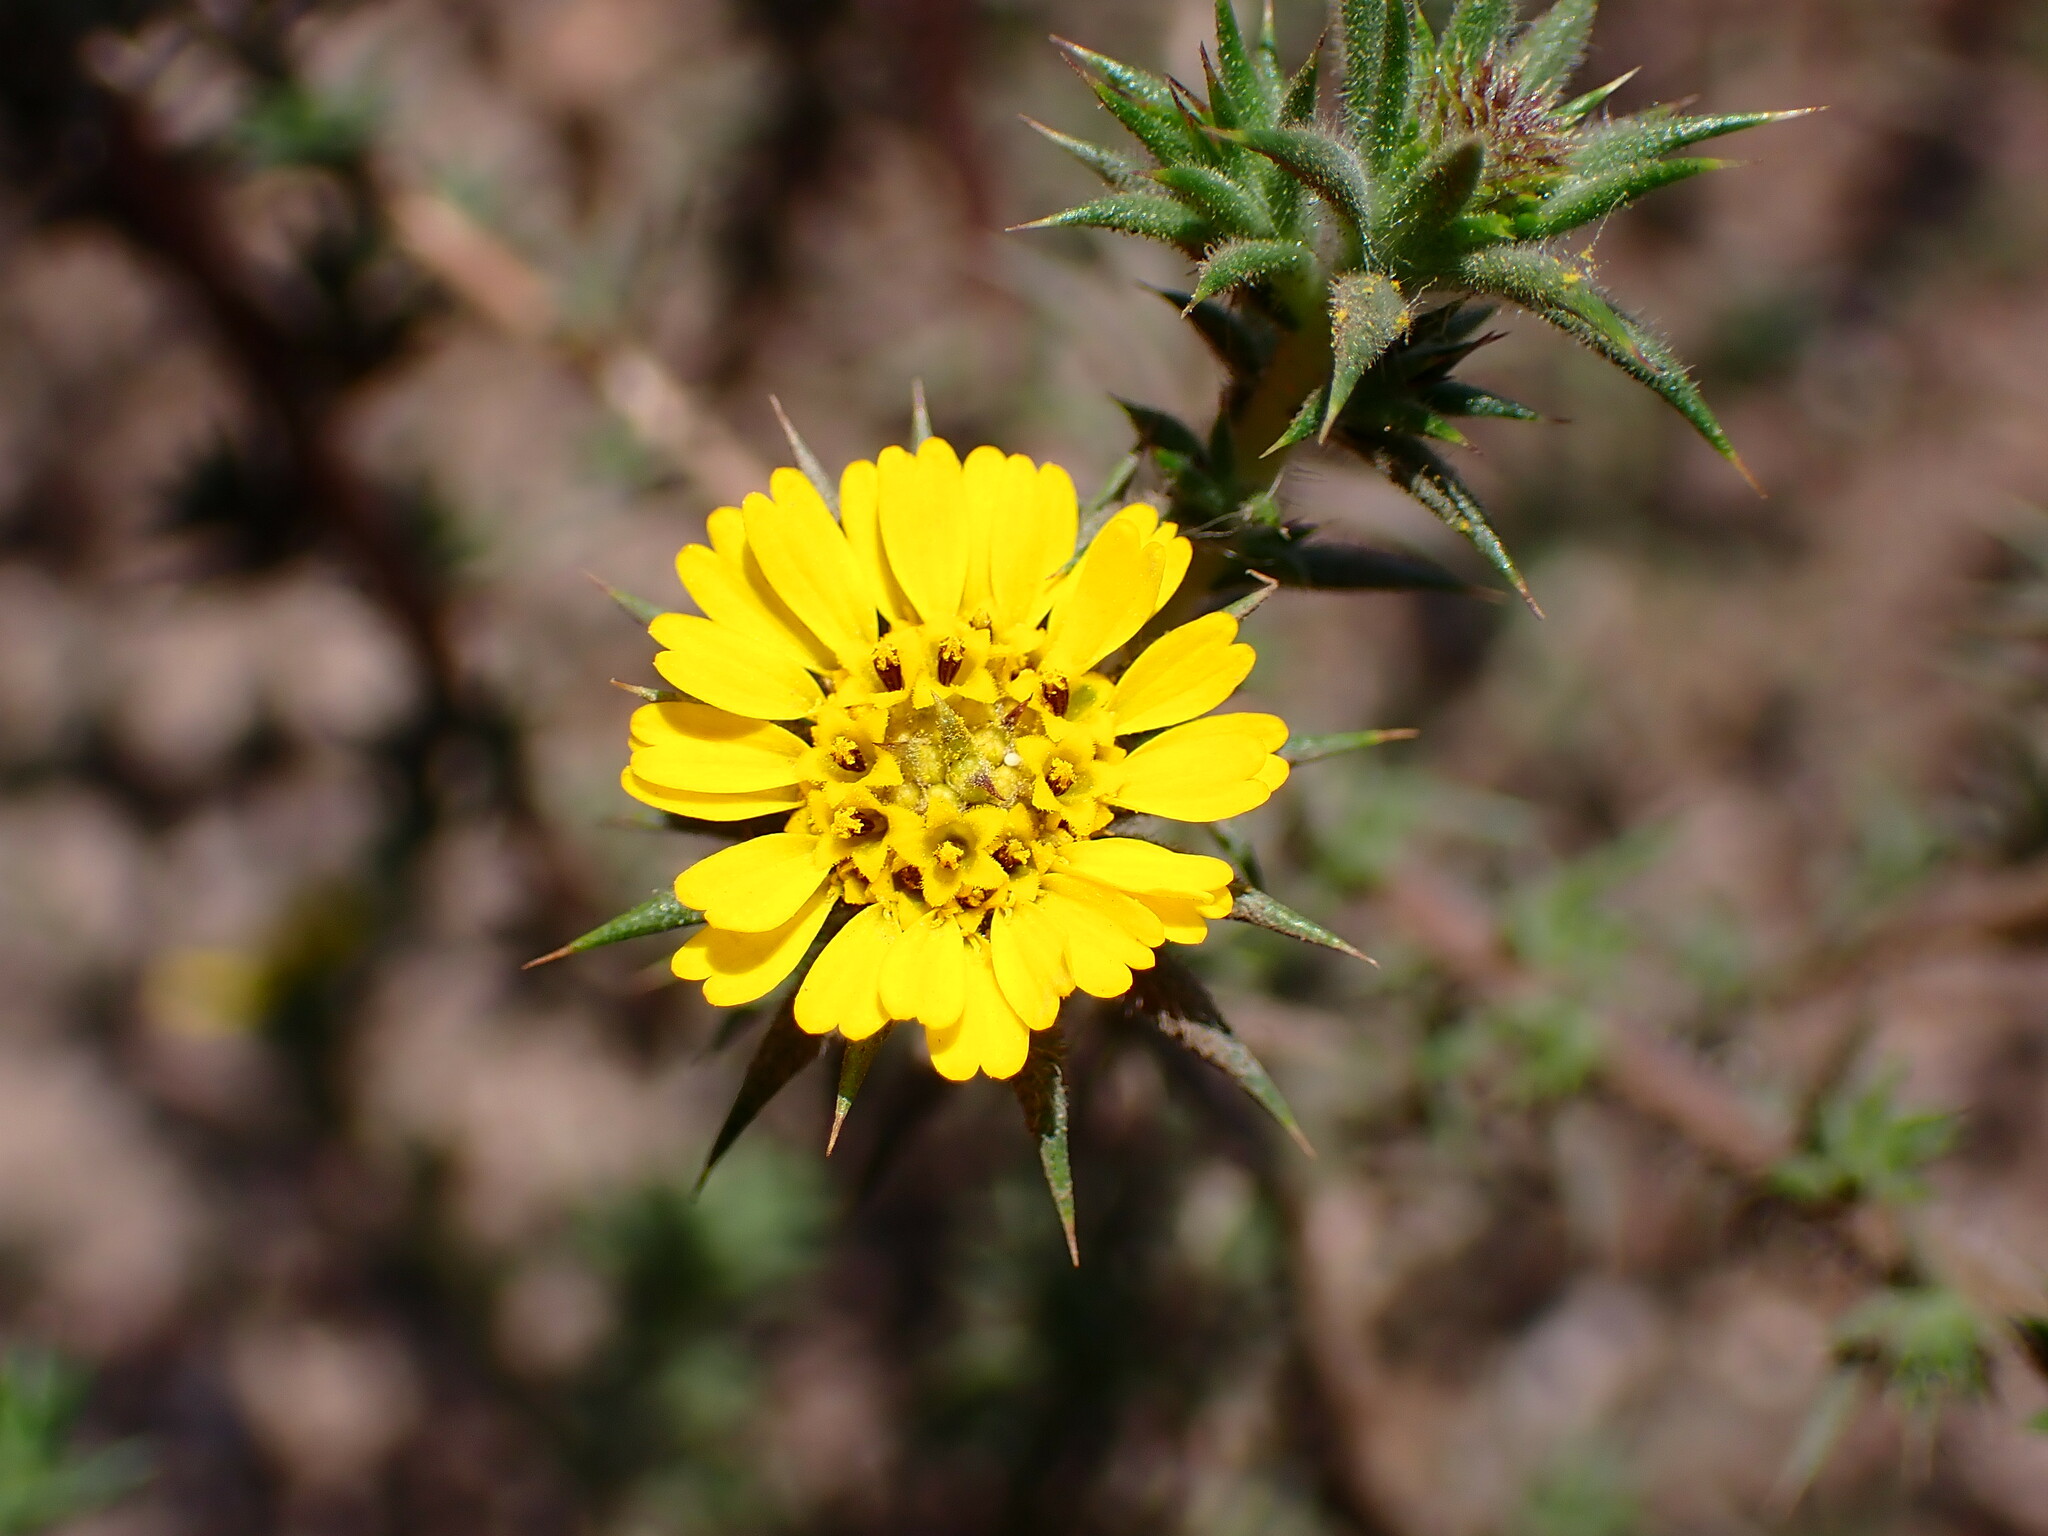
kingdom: Plantae
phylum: Tracheophyta
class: Magnoliopsida
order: Asterales
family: Asteraceae
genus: Centromadia
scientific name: Centromadia parryi
